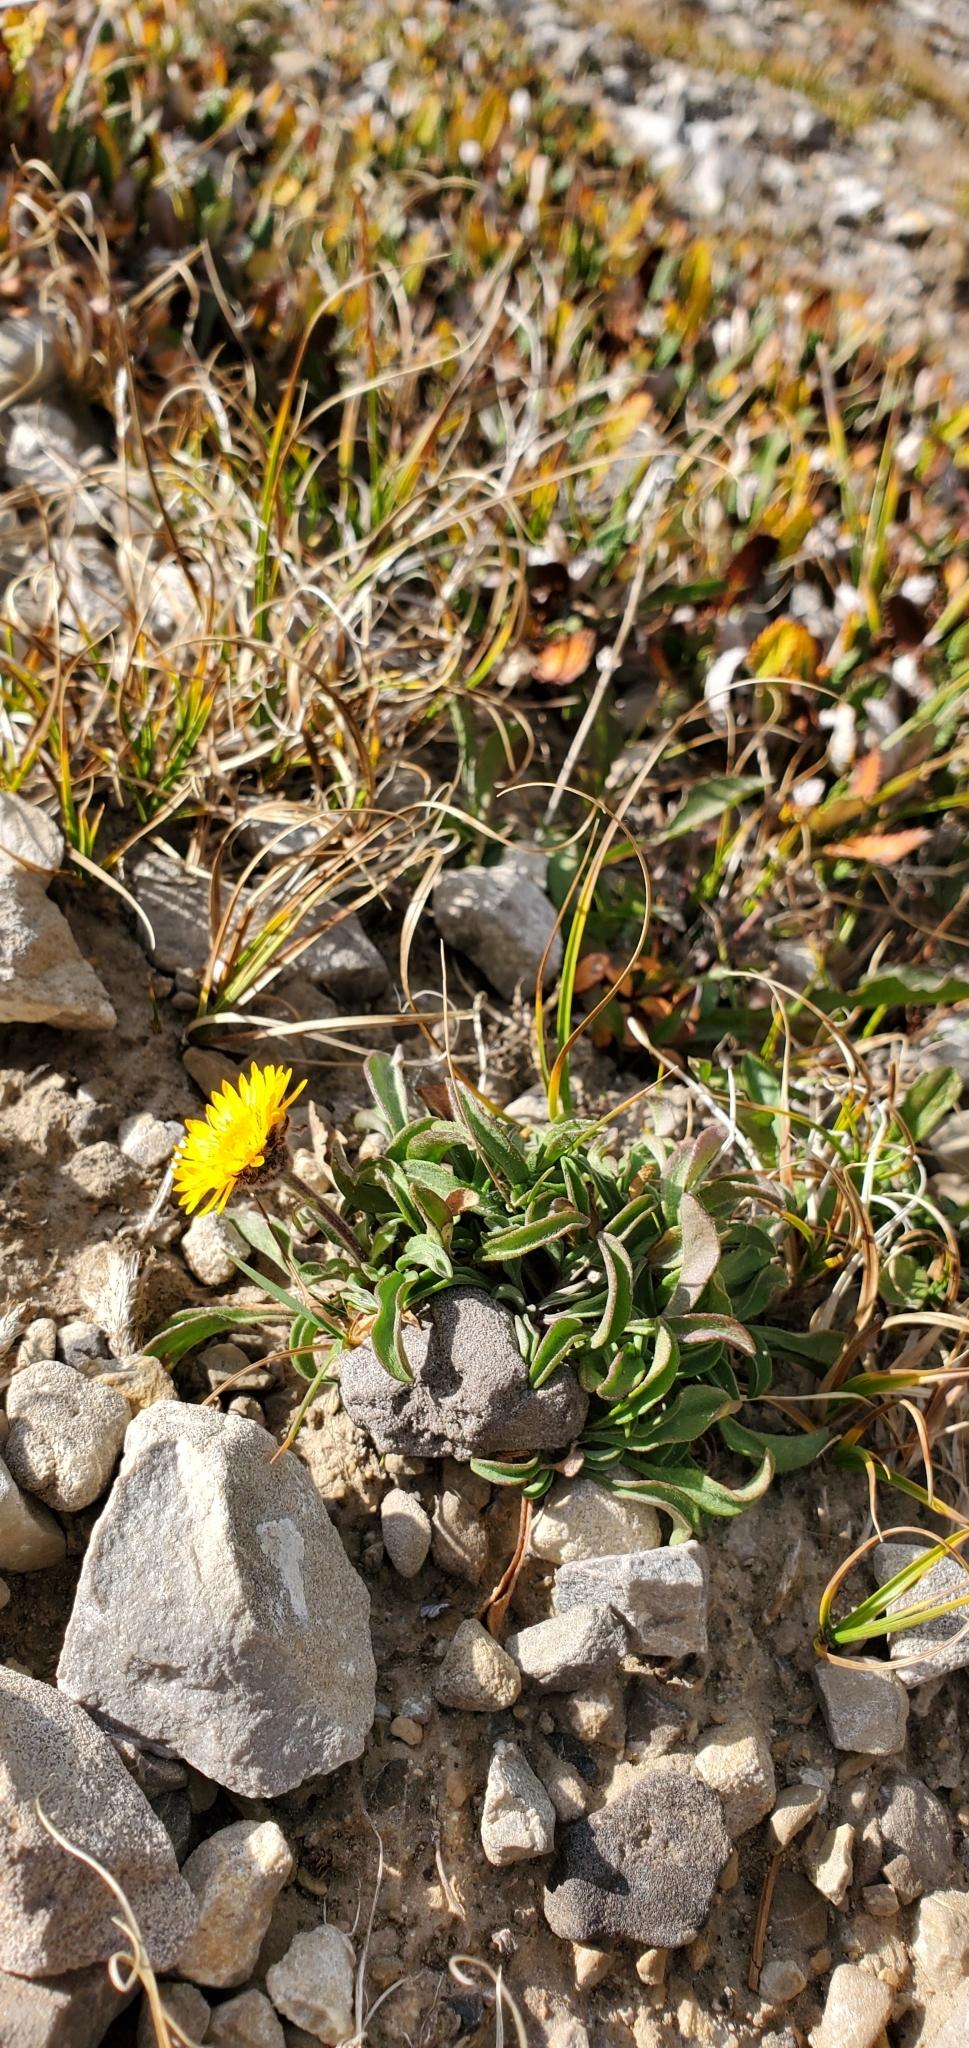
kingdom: Plantae
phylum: Tracheophyta
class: Magnoliopsida
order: Asterales
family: Asteraceae
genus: Erigeron
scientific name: Erigeron aureus
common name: Alpine yellow fleabane
